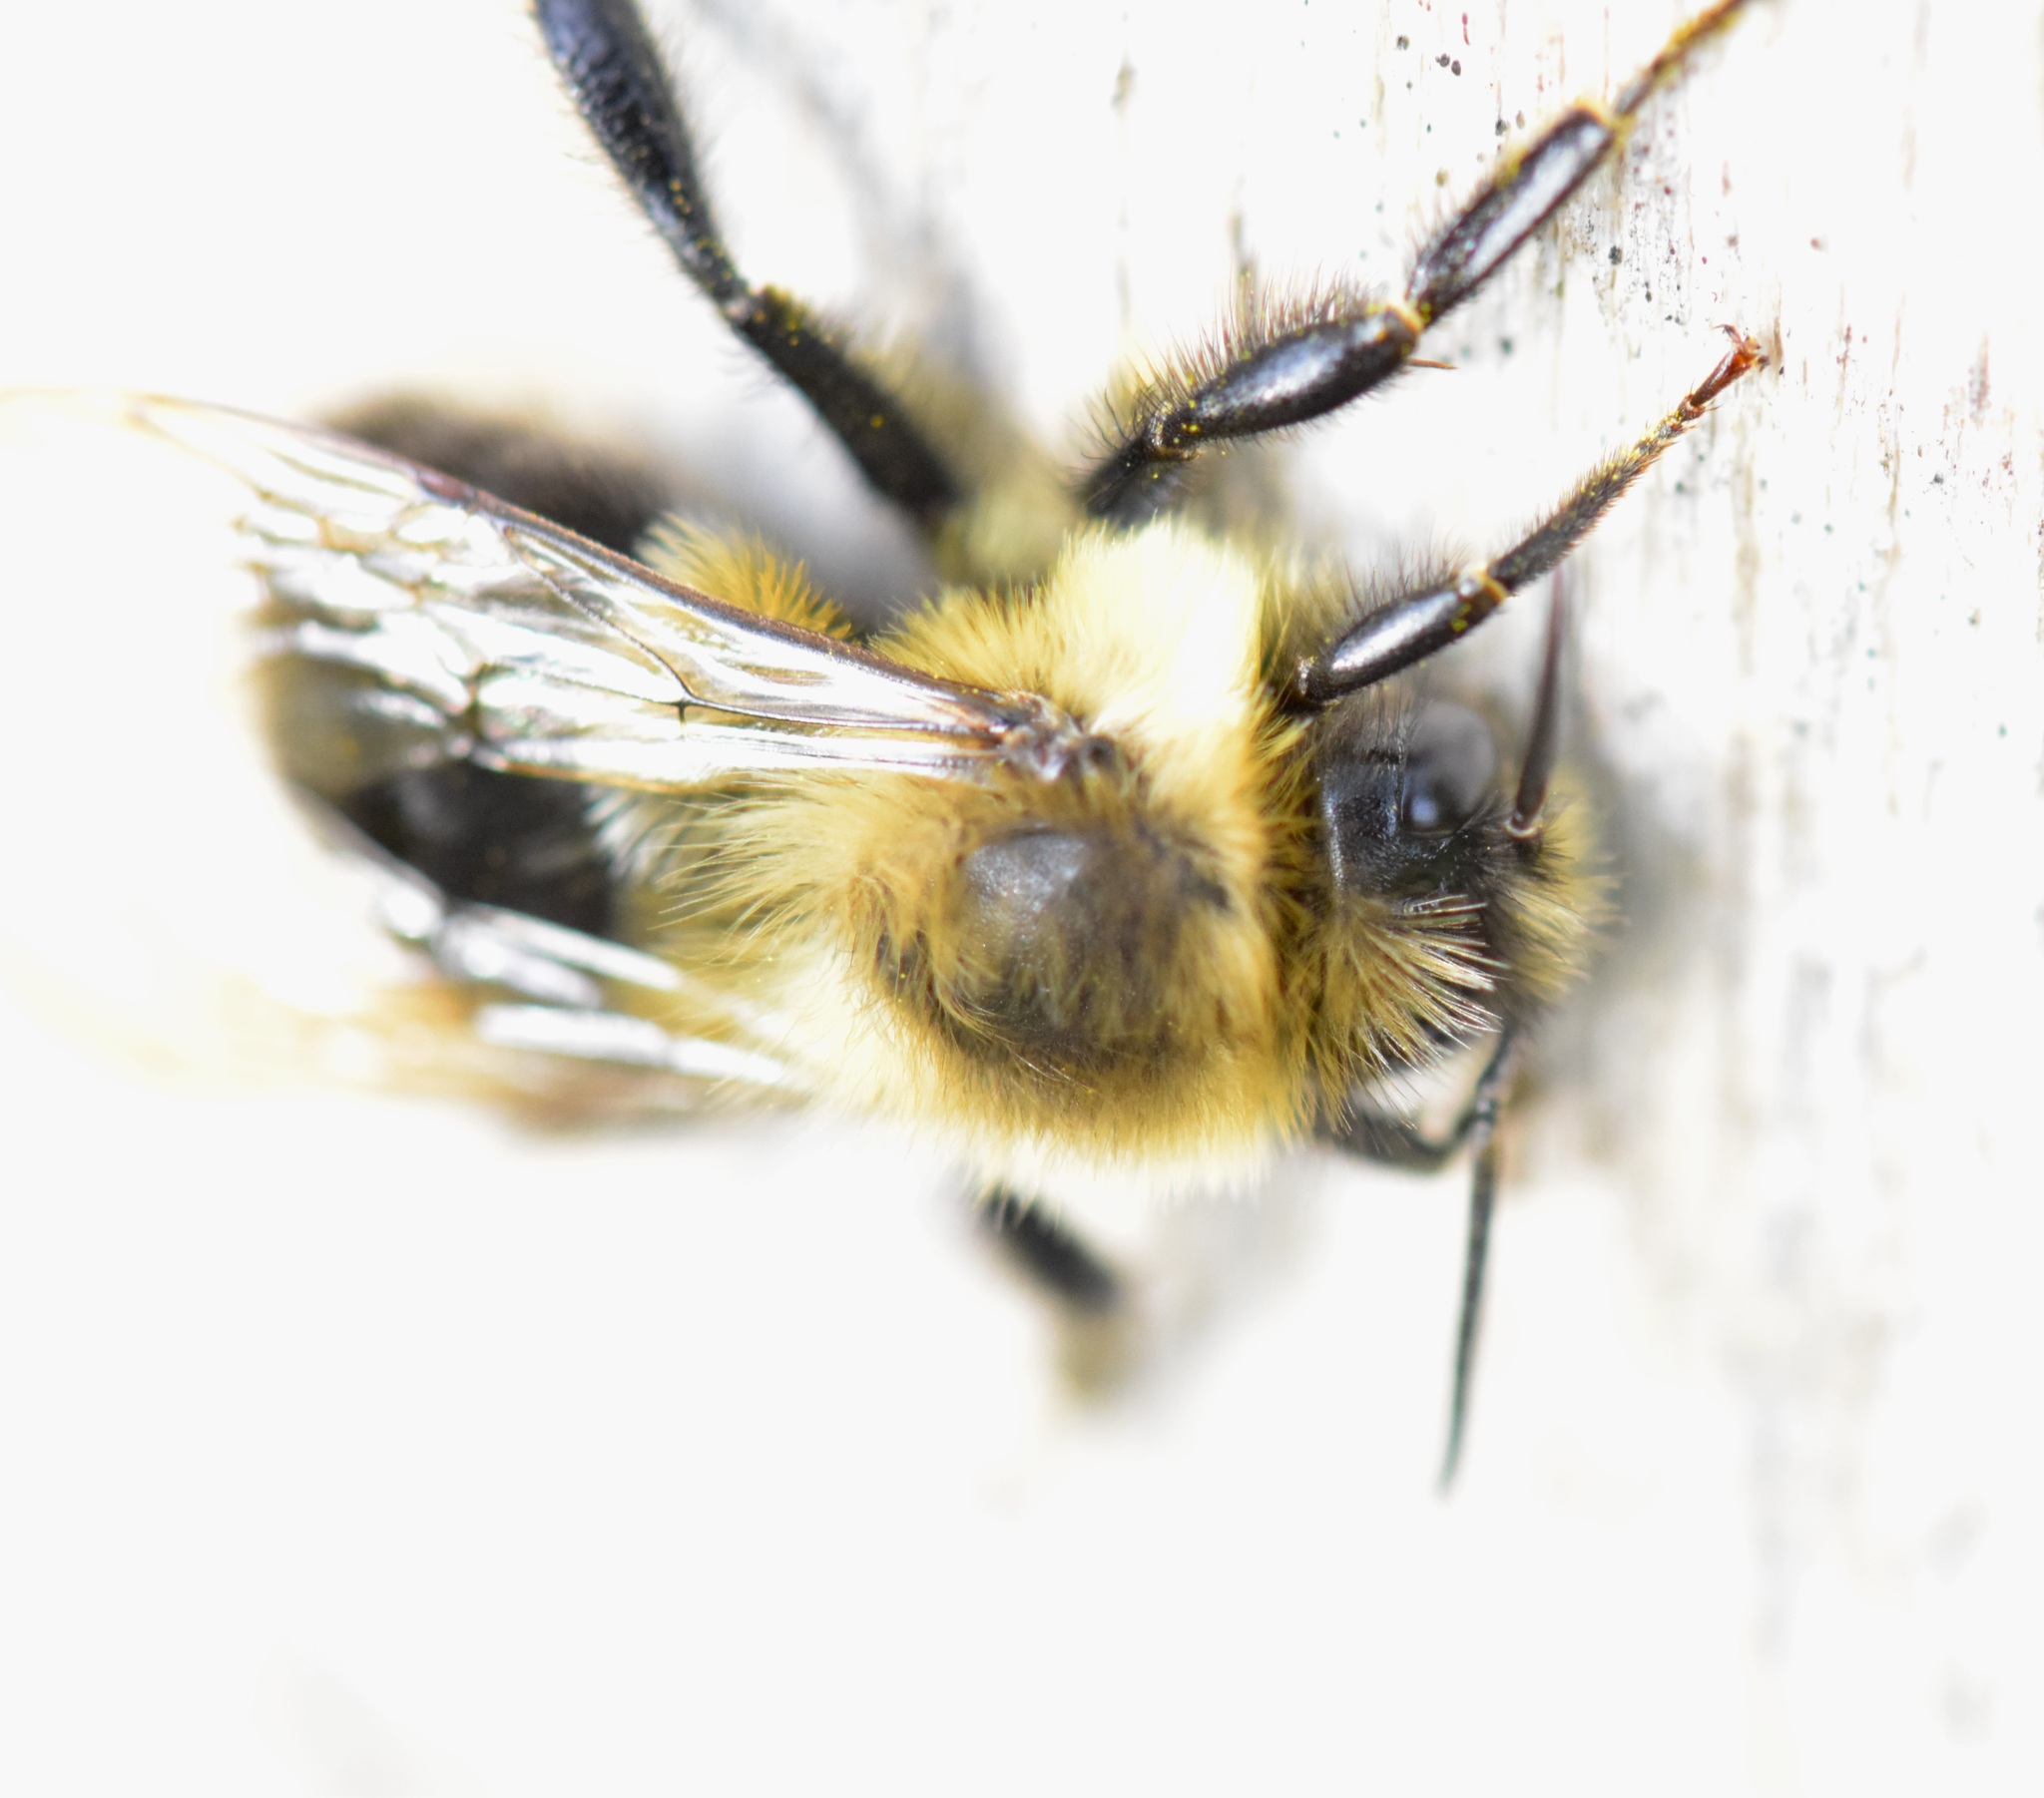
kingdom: Animalia
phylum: Arthropoda
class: Insecta
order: Hymenoptera
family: Apidae
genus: Bombus
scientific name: Bombus impatiens
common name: Common eastern bumble bee
